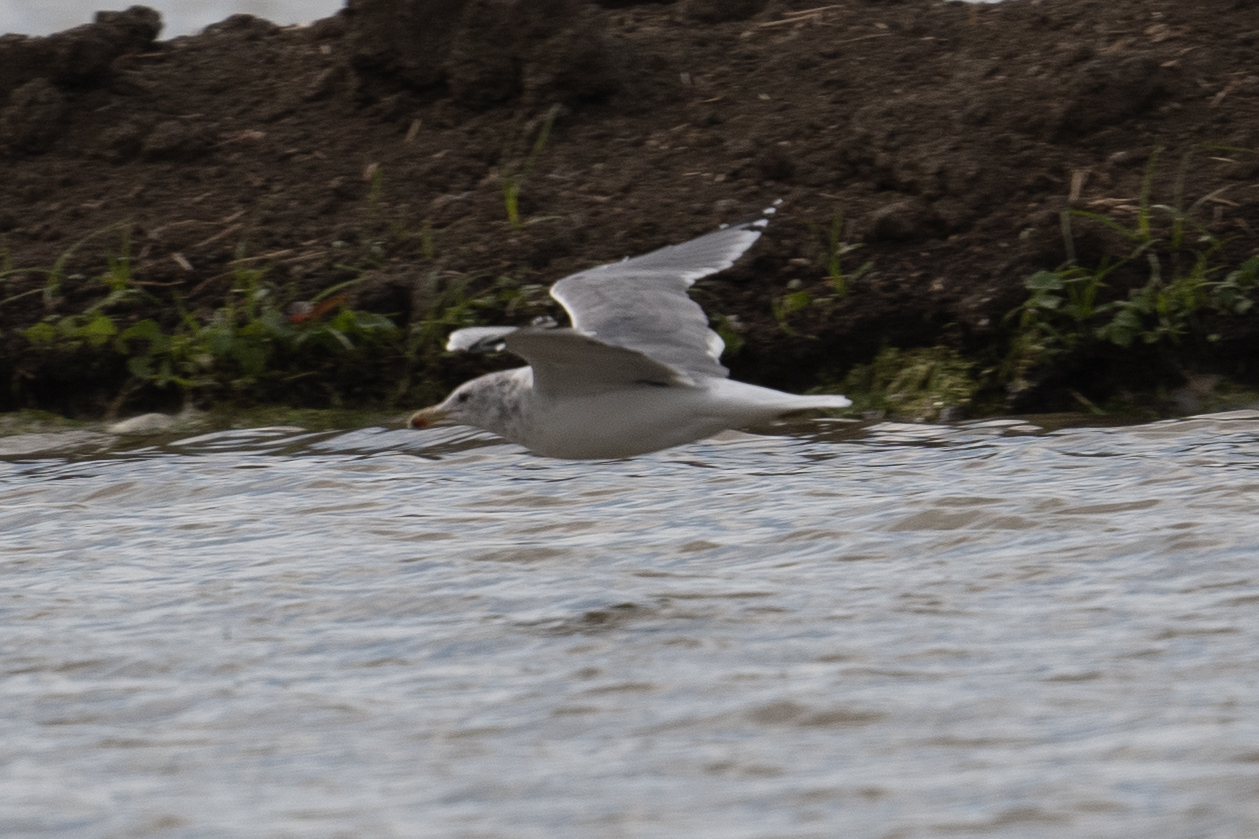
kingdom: Animalia
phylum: Chordata
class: Aves
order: Charadriiformes
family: Laridae
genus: Larus
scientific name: Larus californicus
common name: California gull
